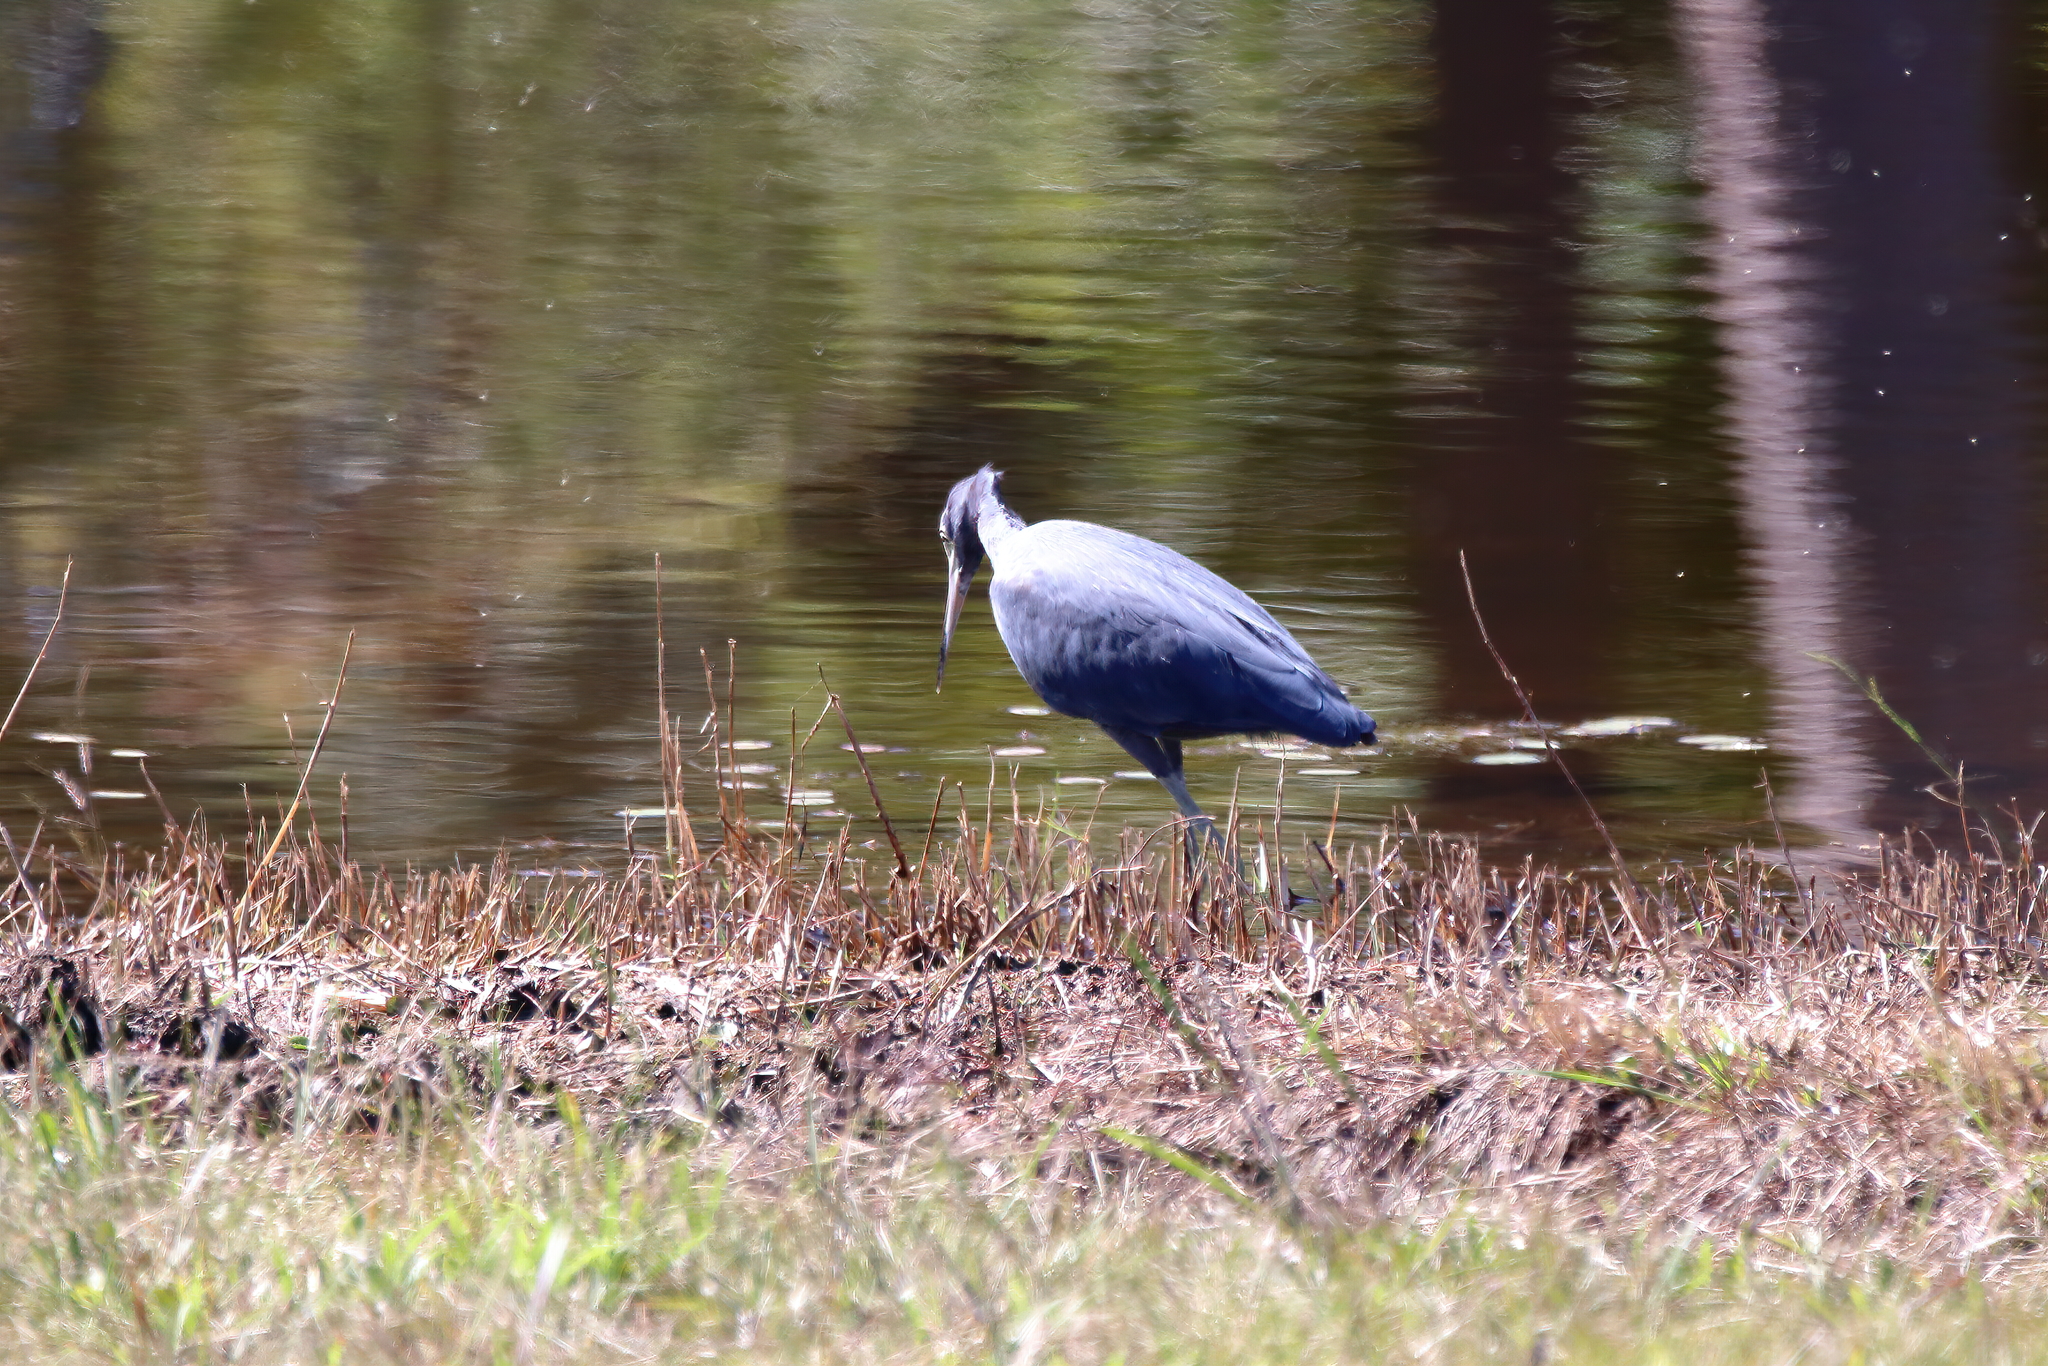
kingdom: Animalia
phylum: Chordata
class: Aves
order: Pelecaniformes
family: Ardeidae
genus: Egretta
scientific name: Egretta caerulea
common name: Little blue heron
